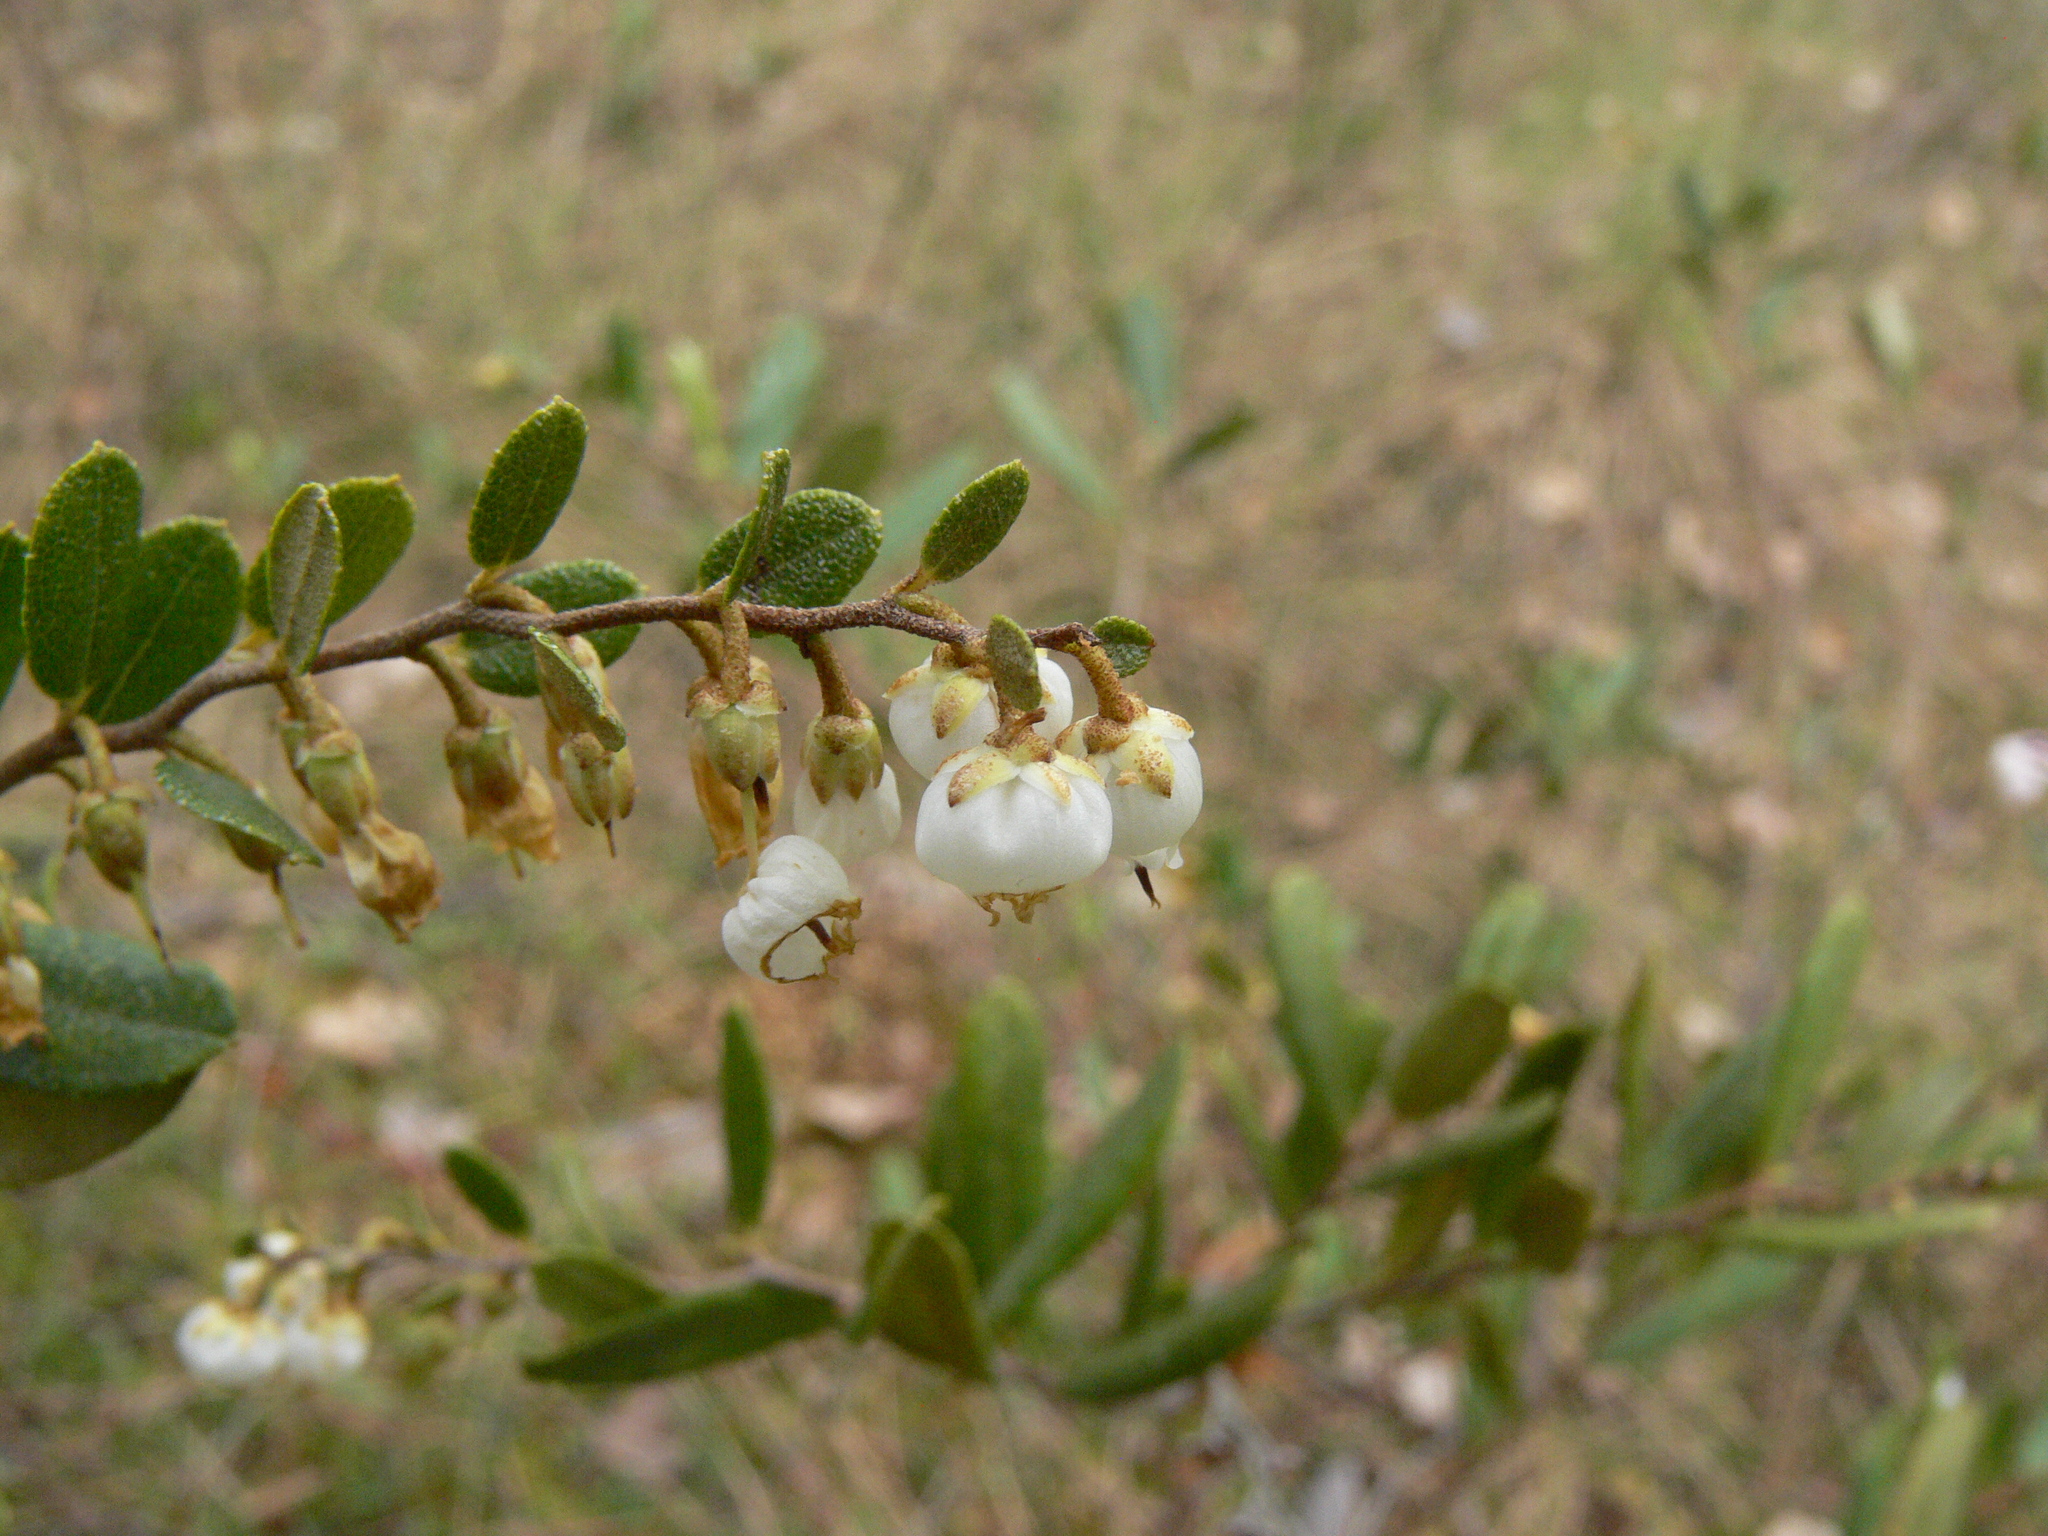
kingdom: Plantae
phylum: Tracheophyta
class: Magnoliopsida
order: Ericales
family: Ericaceae
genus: Chamaedaphne
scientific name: Chamaedaphne calyculata
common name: Leatherleaf
